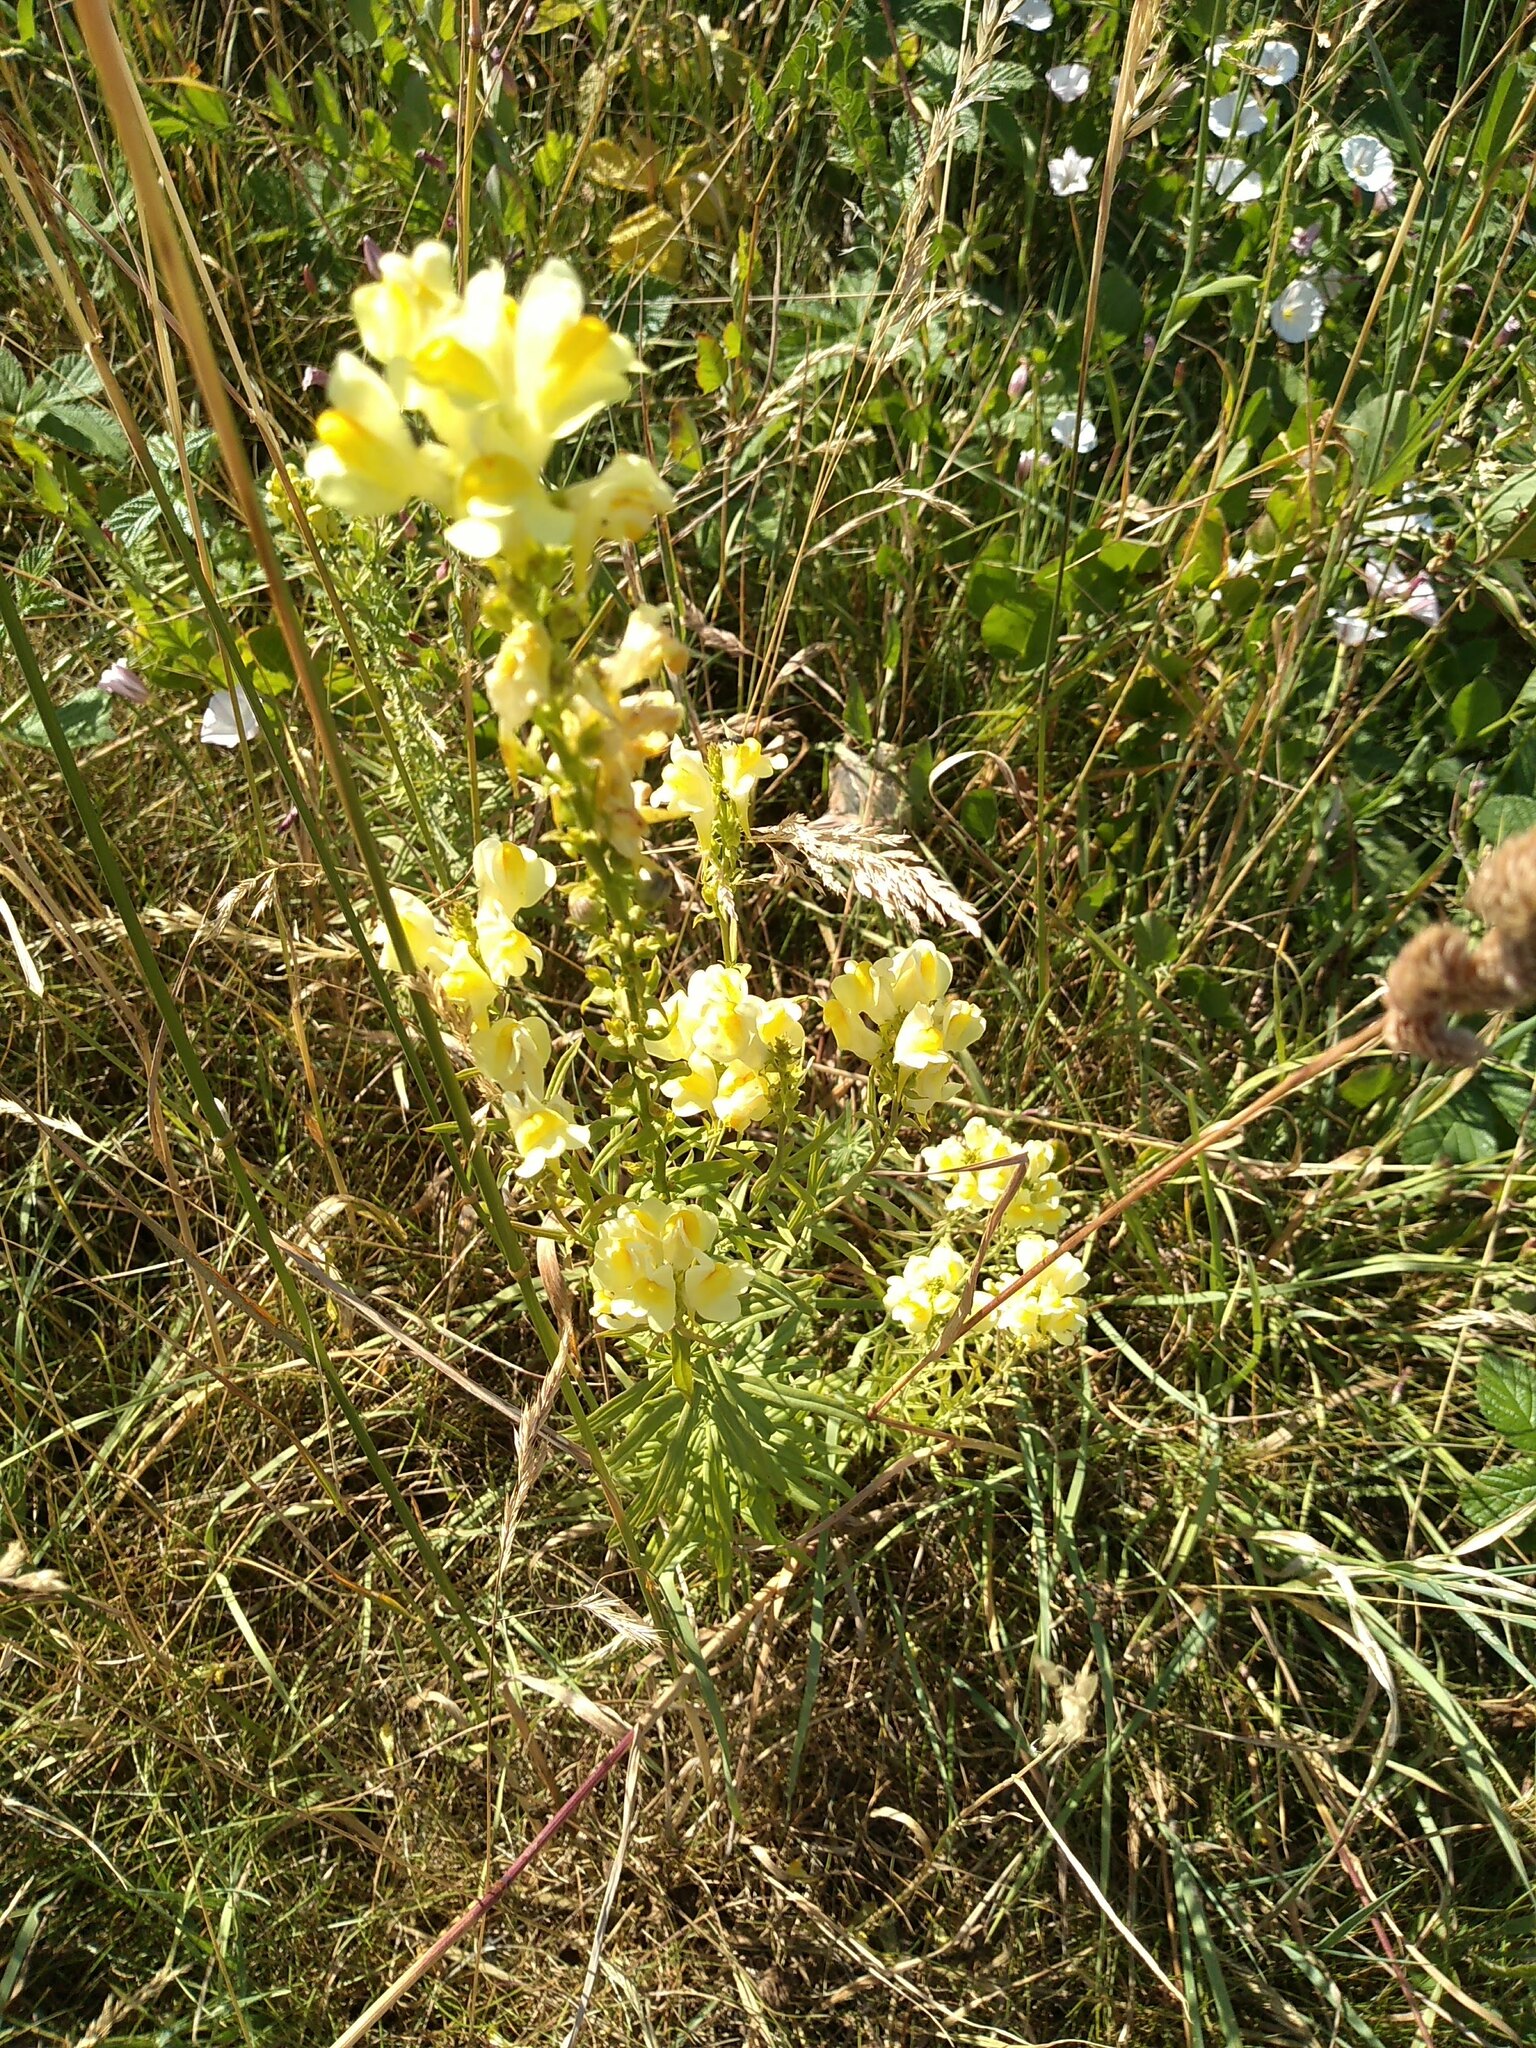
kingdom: Plantae
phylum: Tracheophyta
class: Magnoliopsida
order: Lamiales
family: Plantaginaceae
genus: Linaria
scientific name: Linaria vulgaris
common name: Butter and eggs
